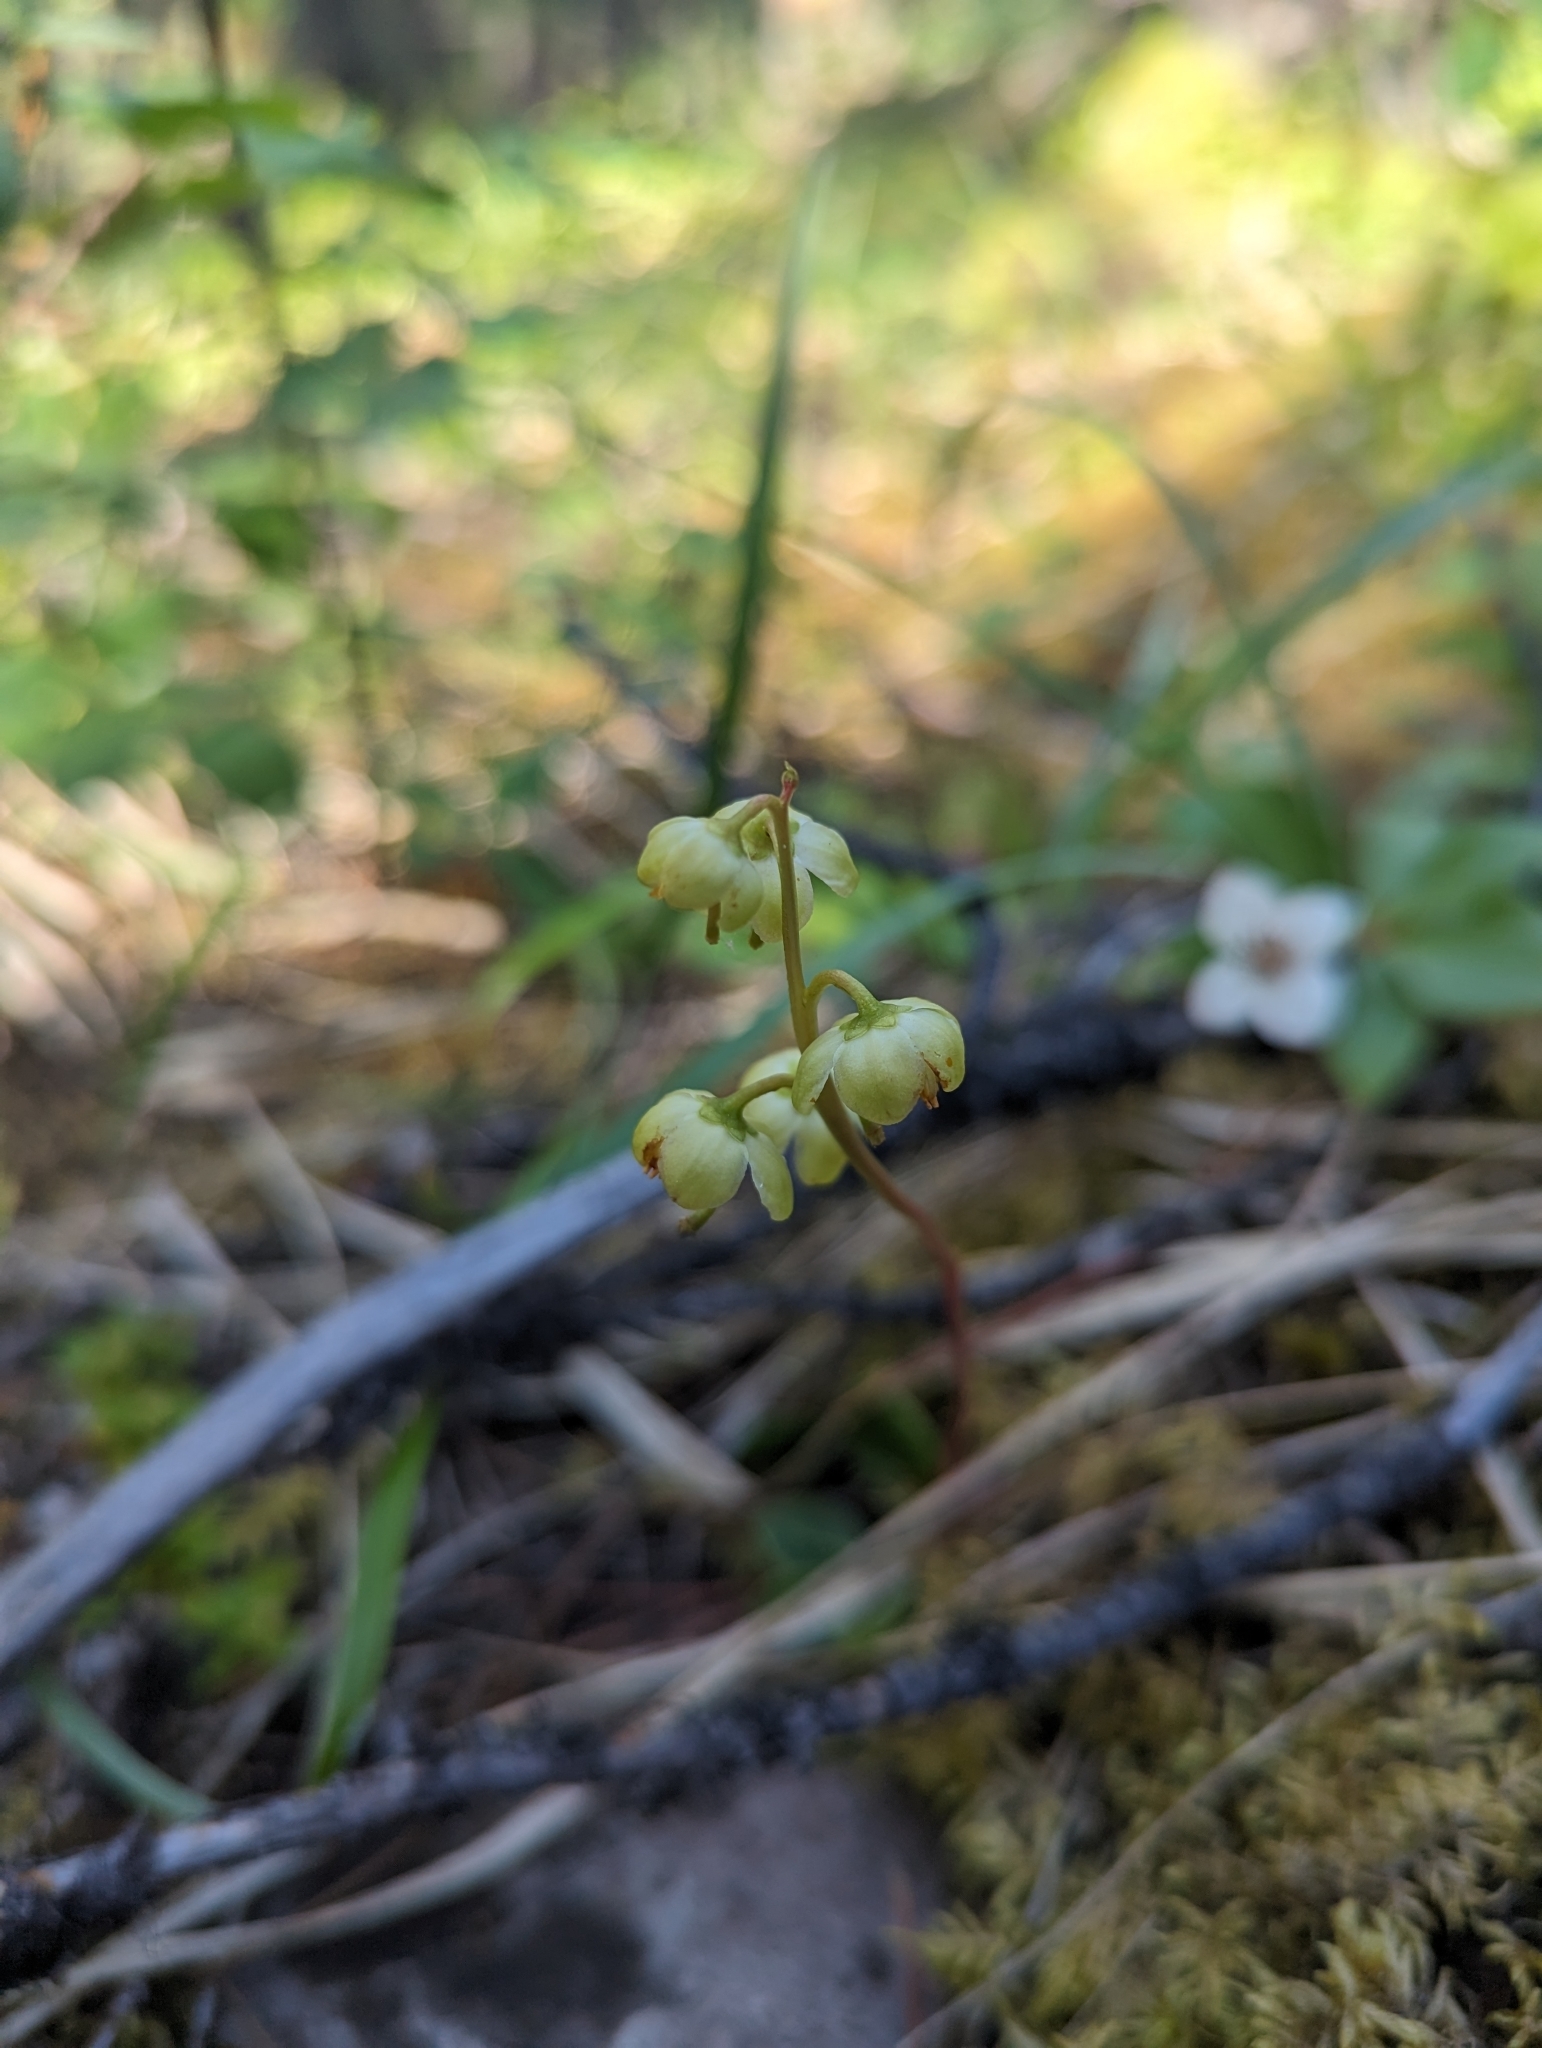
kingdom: Plantae
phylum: Tracheophyta
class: Magnoliopsida
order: Ericales
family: Ericaceae
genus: Pyrola
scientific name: Pyrola chlorantha
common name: Green wintergreen
